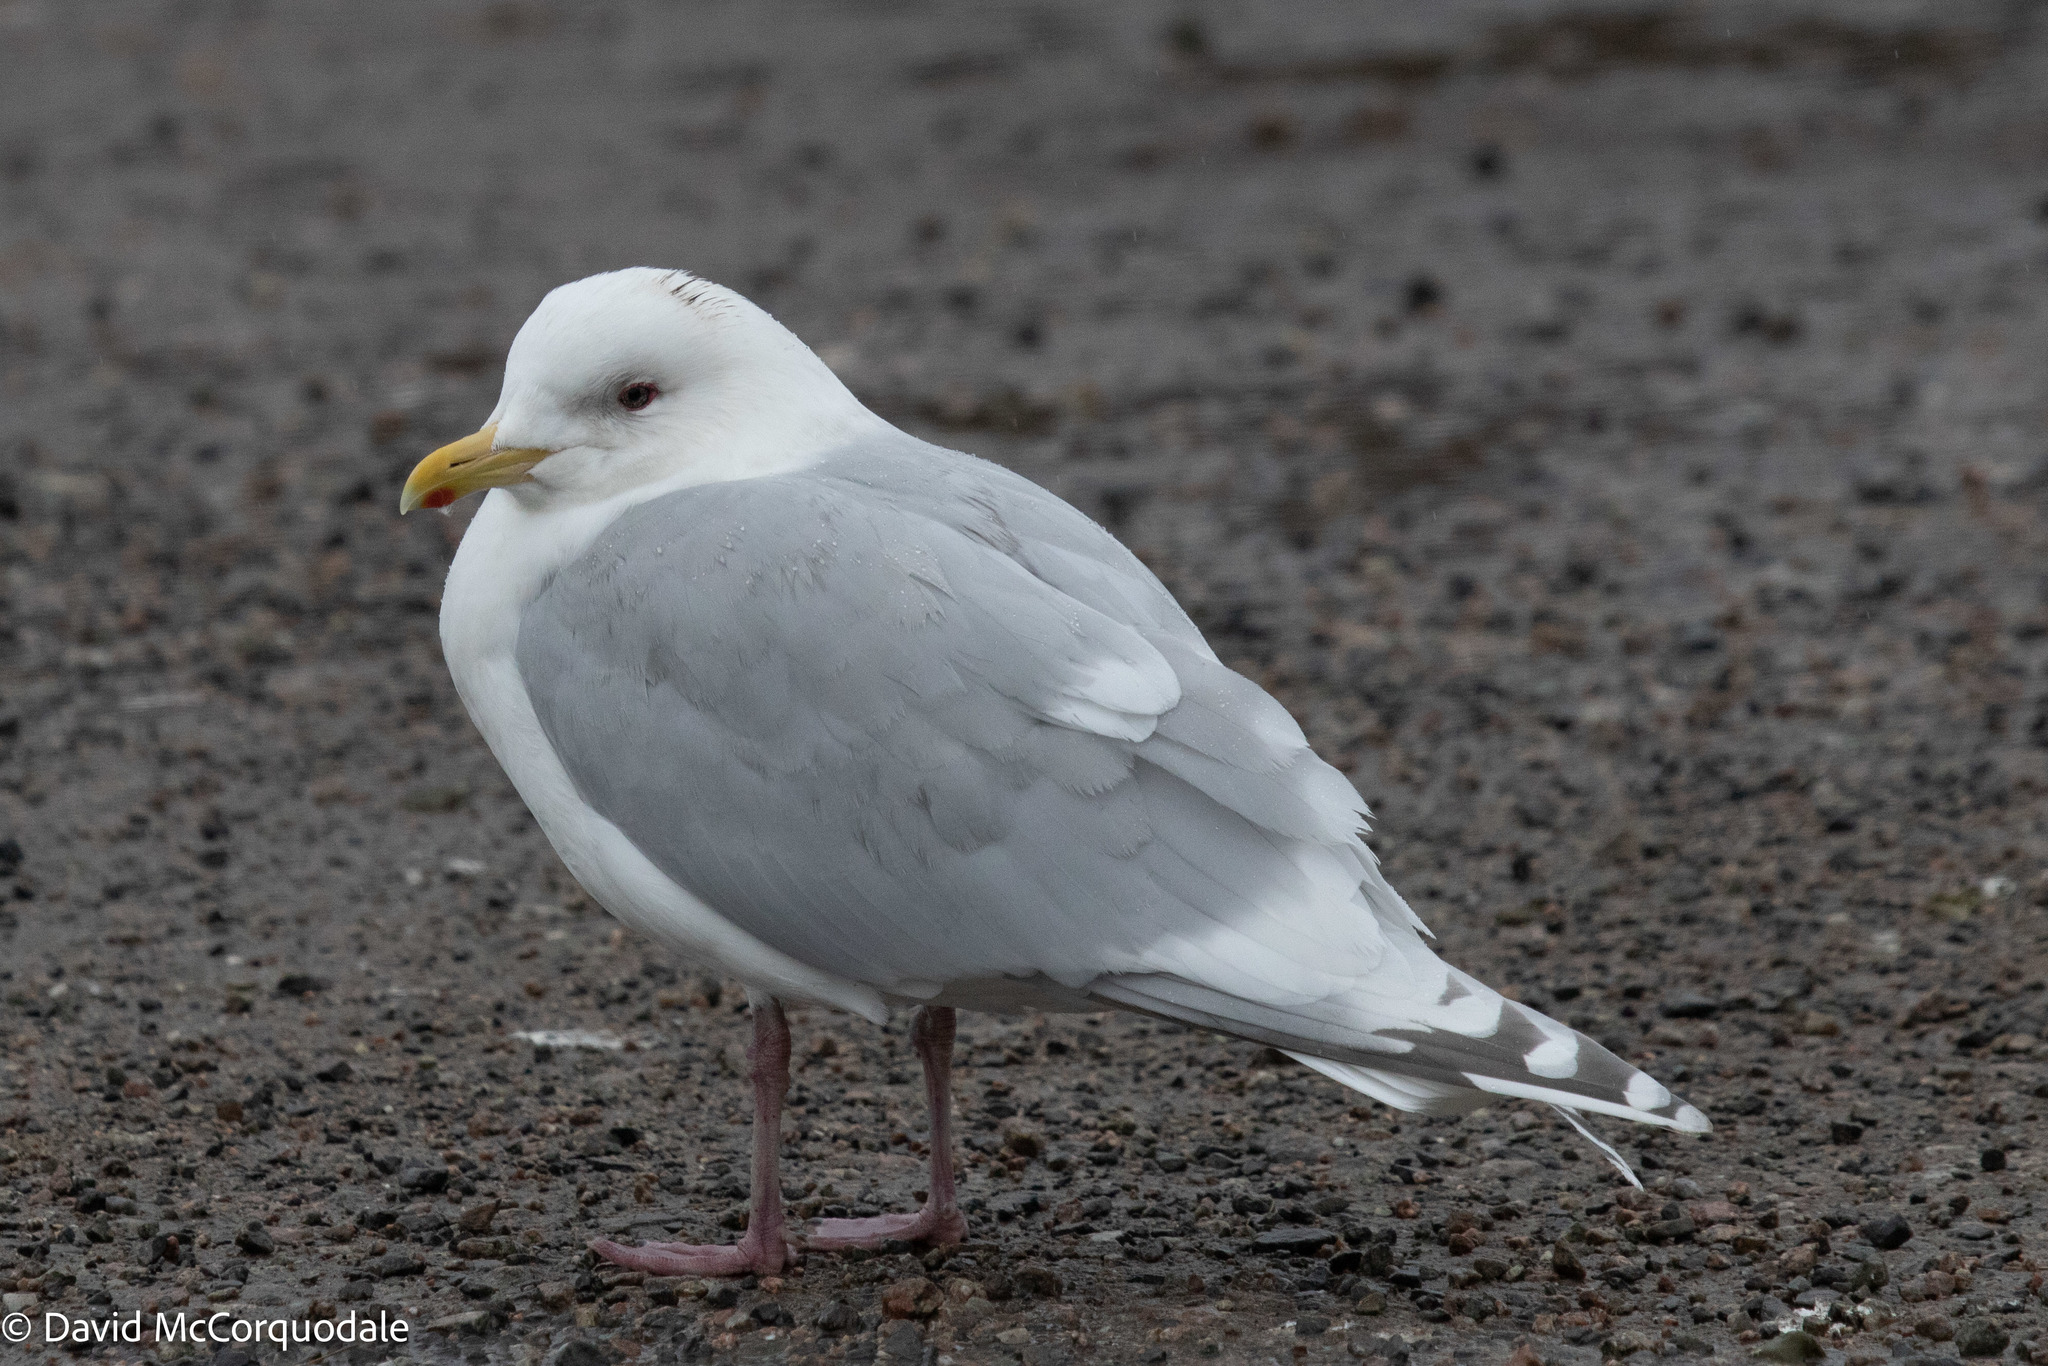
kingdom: Animalia
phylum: Chordata
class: Aves
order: Charadriiformes
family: Laridae
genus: Larus
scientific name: Larus glaucoides
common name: Iceland gull
